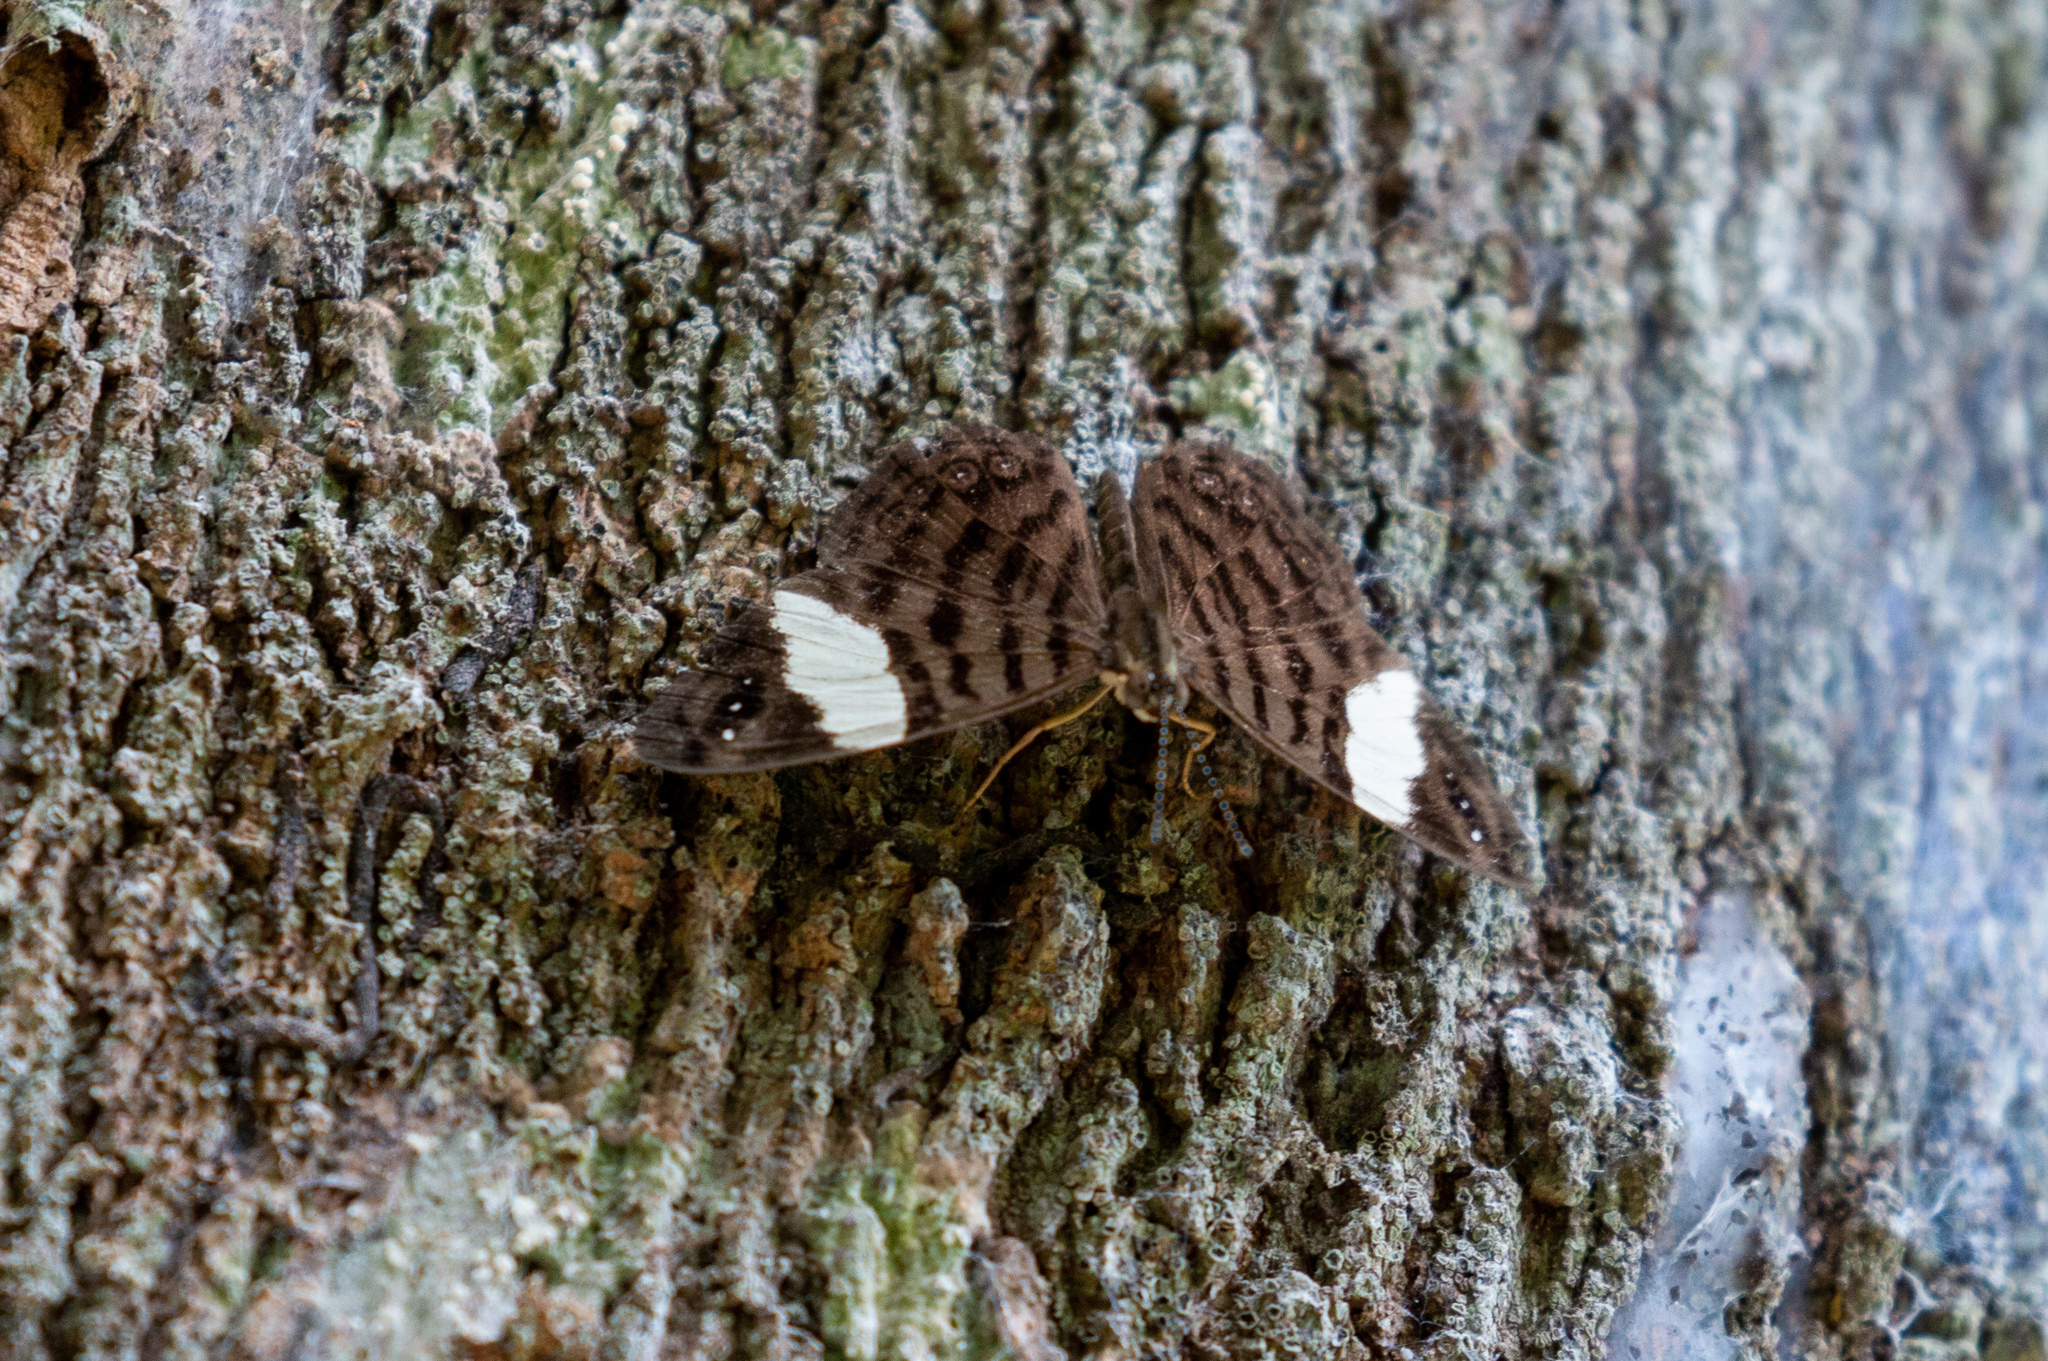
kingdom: Animalia
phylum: Arthropoda
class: Insecta
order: Lepidoptera
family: Nymphalidae
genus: Ectima
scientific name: Ectima thecla
